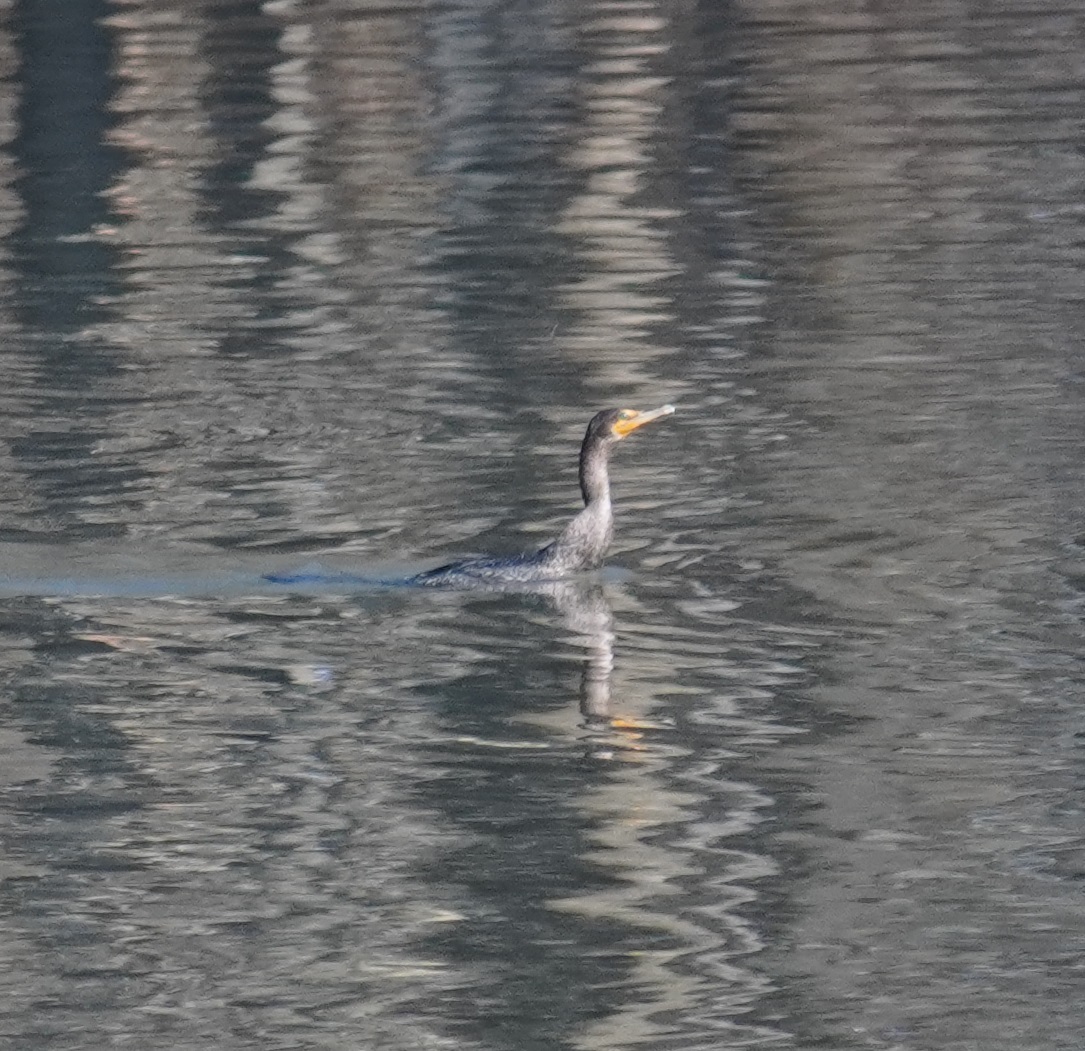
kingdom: Animalia
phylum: Chordata
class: Aves
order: Suliformes
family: Phalacrocoracidae
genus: Phalacrocorax
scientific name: Phalacrocorax auritus
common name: Double-crested cormorant
